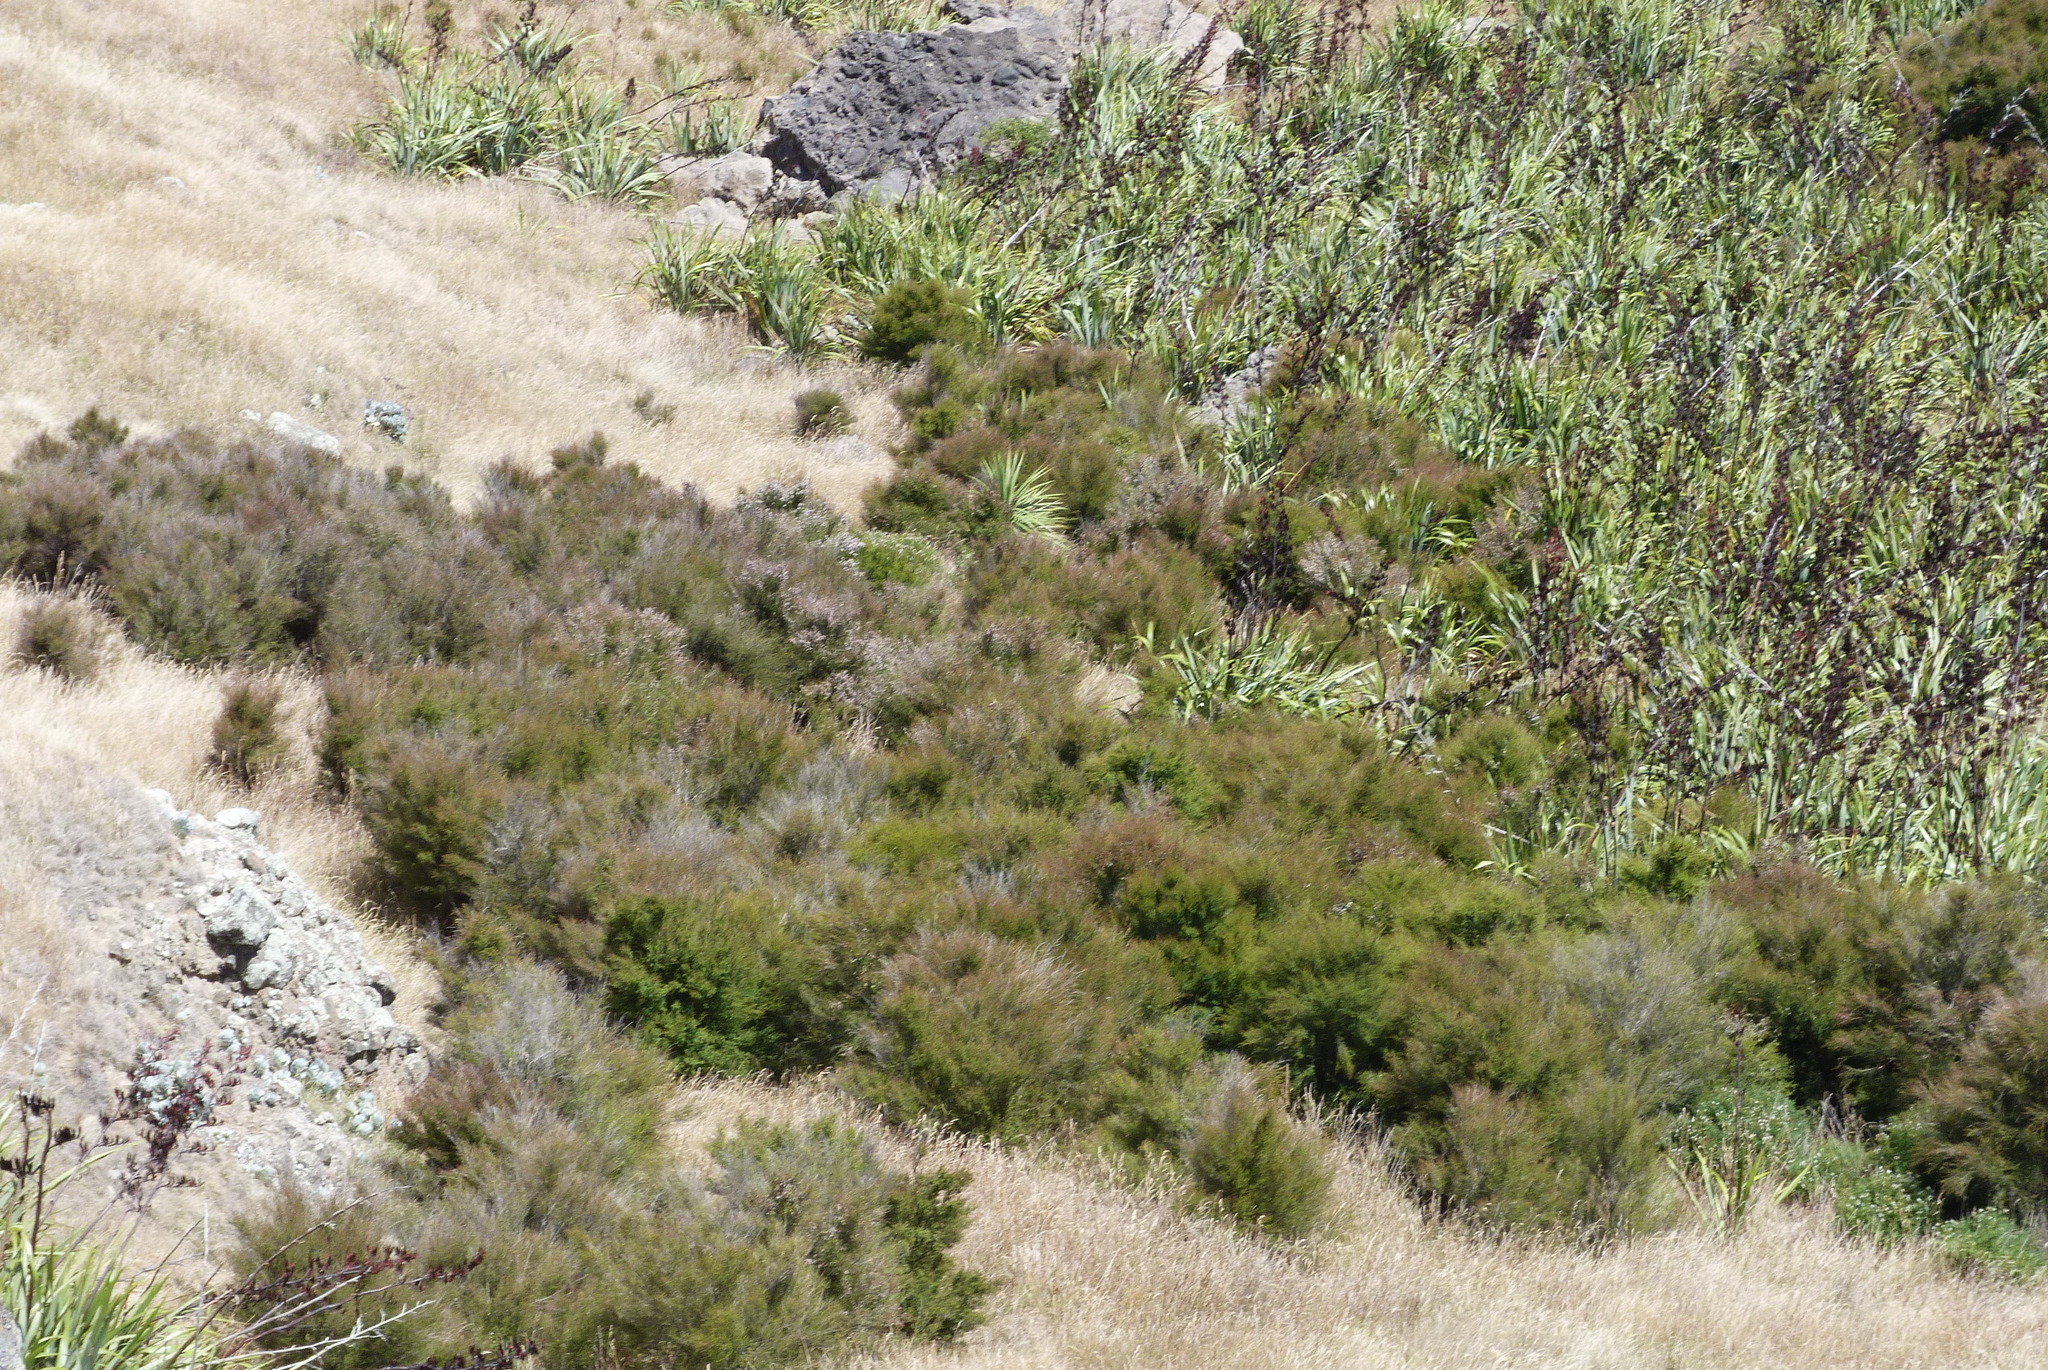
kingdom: Plantae
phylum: Tracheophyta
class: Magnoliopsida
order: Myrtales
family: Myrtaceae
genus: Kunzea
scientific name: Kunzea robusta
